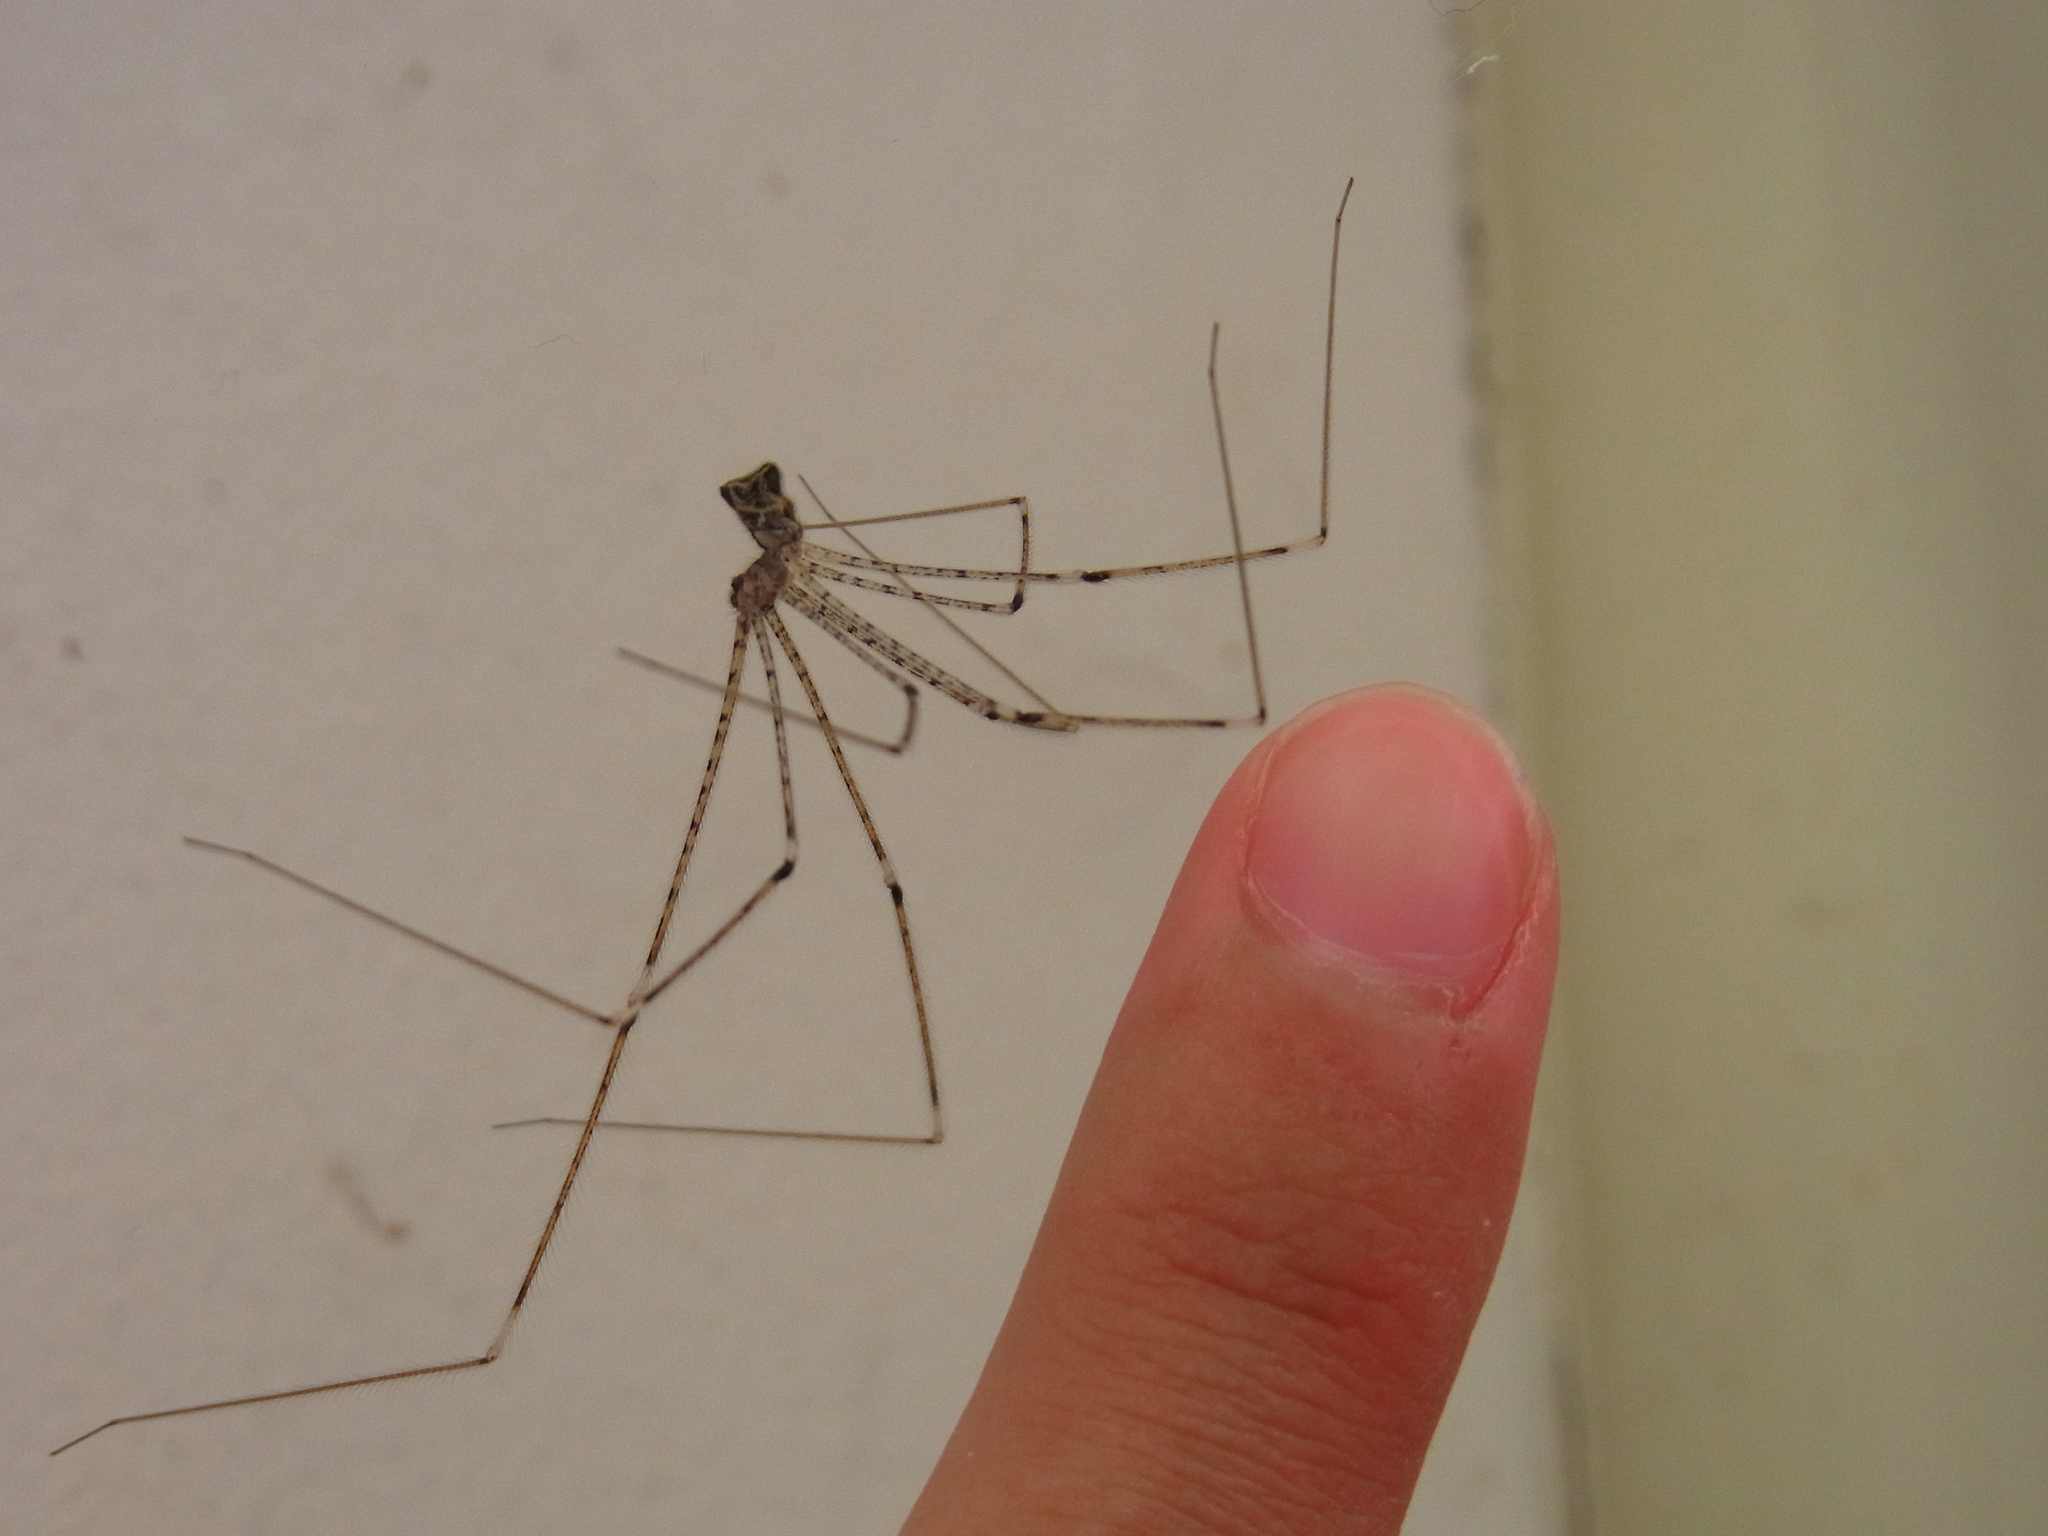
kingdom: Animalia
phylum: Arthropoda
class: Arachnida
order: Araneae
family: Pholcidae
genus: Crossopriza
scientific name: Crossopriza lyoni
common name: Cellar spiders
